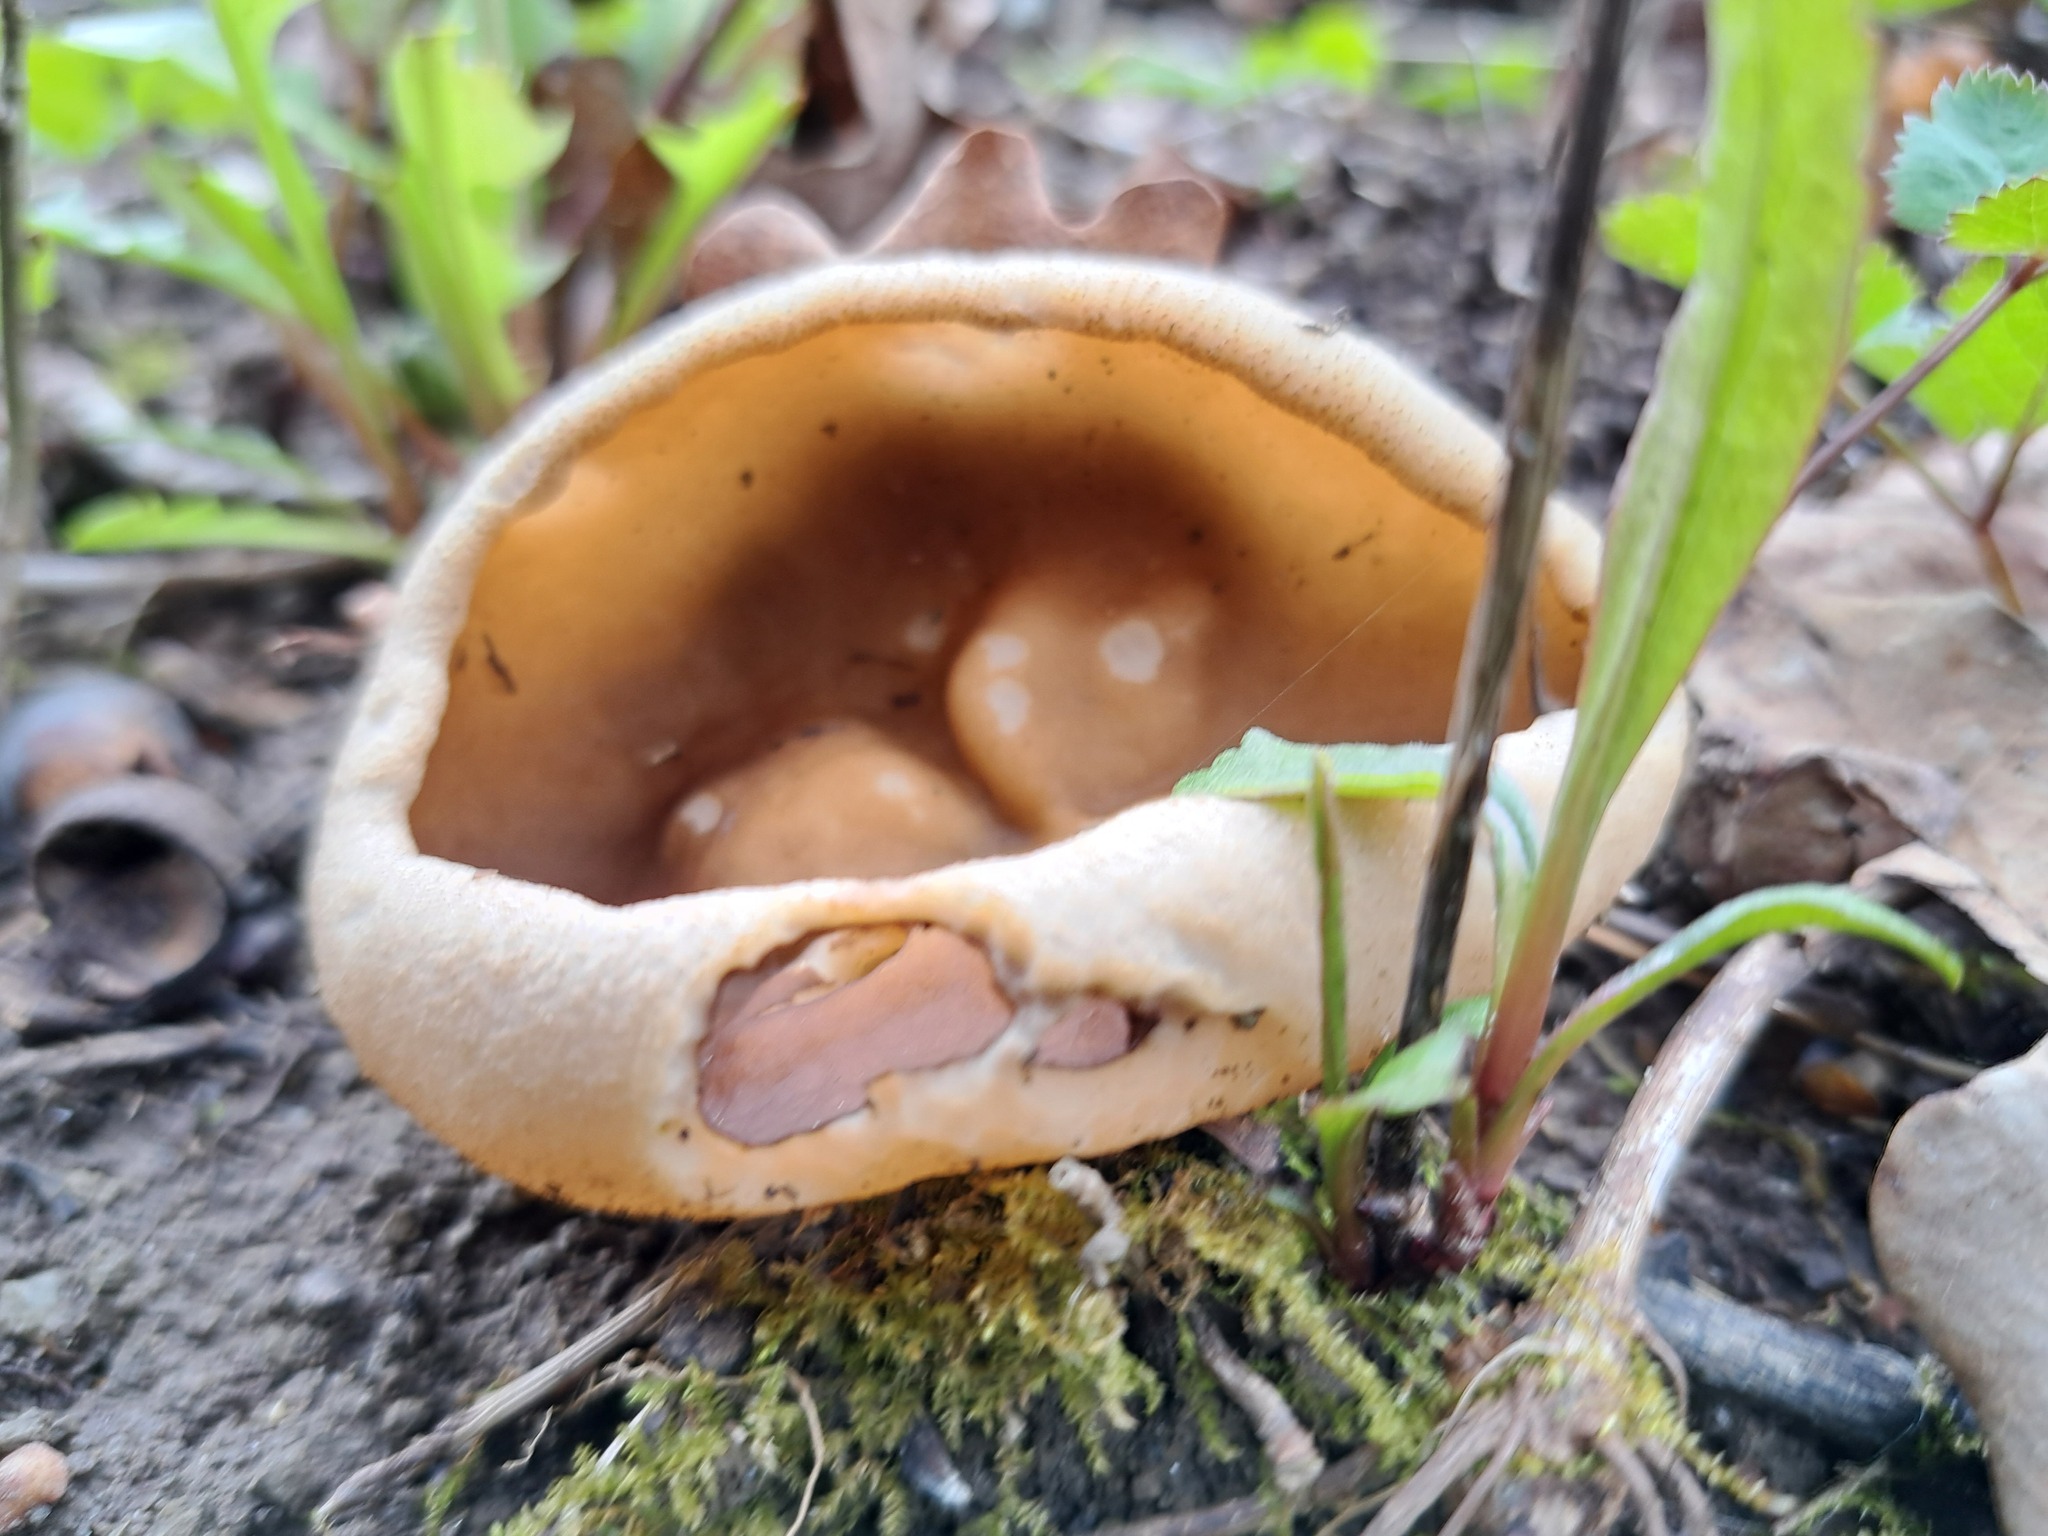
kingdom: Fungi
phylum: Ascomycota
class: Pezizomycetes
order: Pezizales
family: Morchellaceae
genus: Disciotis
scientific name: Disciotis venosa
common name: Bleach cup
